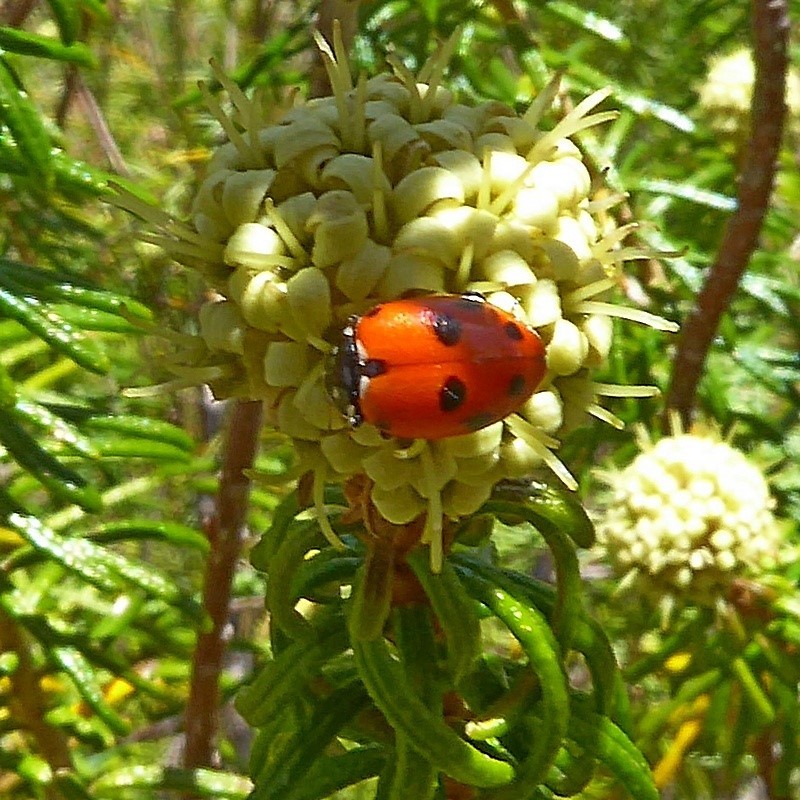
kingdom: Animalia
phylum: Arthropoda
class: Insecta
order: Coleoptera
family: Coccinellidae
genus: Hippodamia
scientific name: Hippodamia variegata
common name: Ladybird beetle
